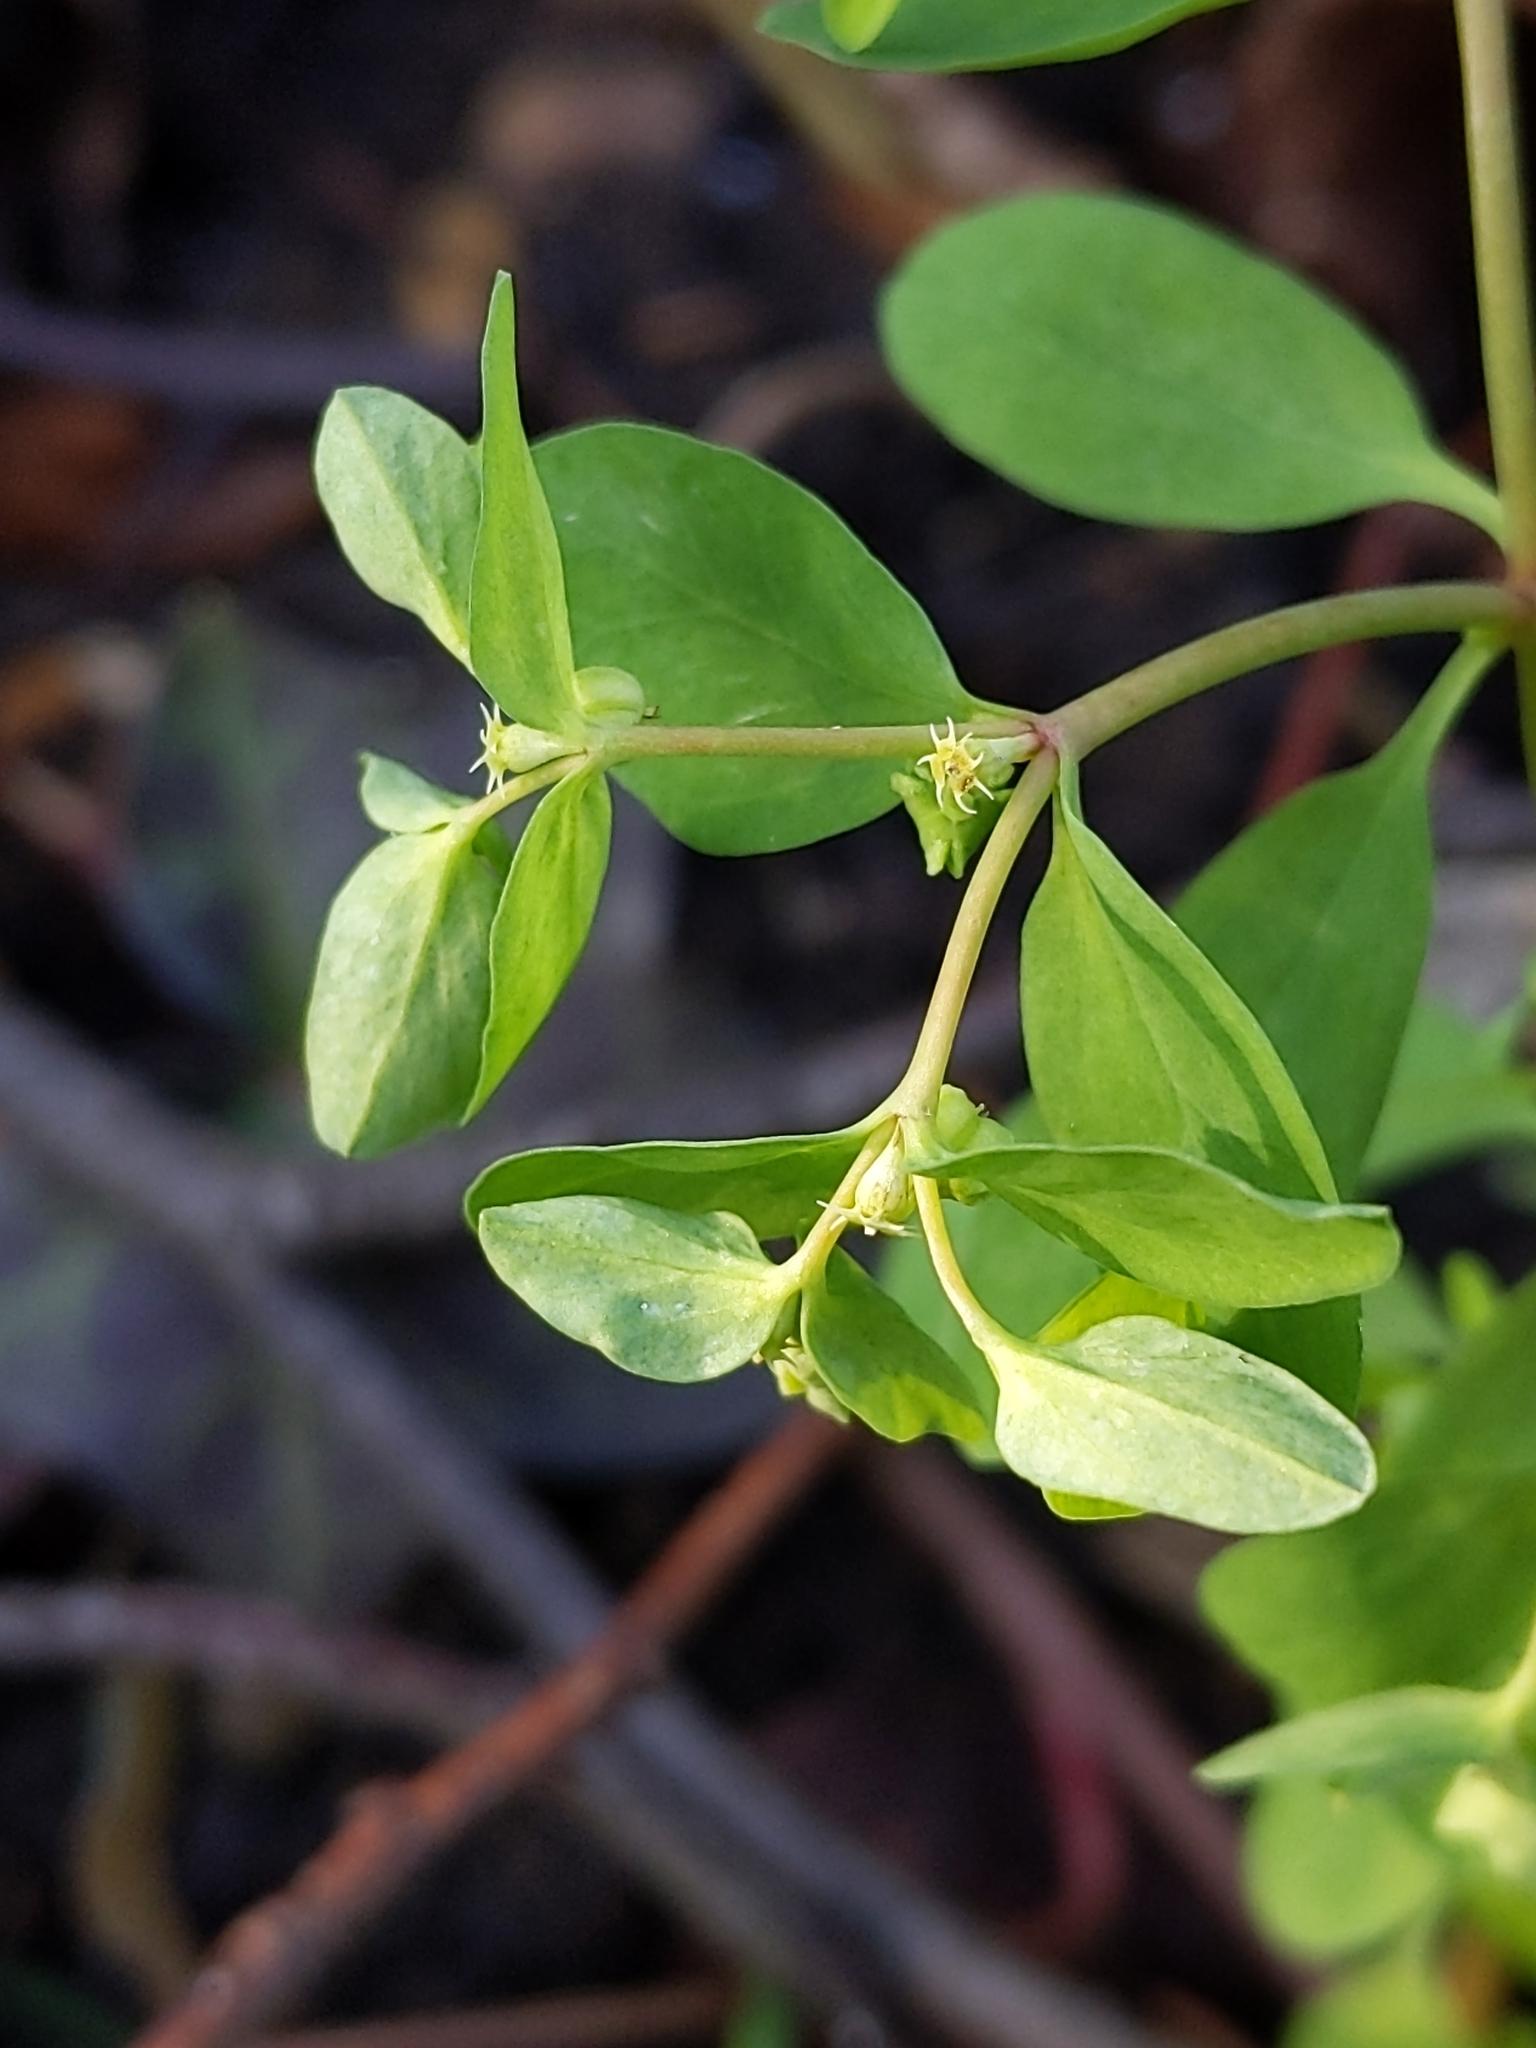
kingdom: Plantae
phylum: Tracheophyta
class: Magnoliopsida
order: Malpighiales
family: Euphorbiaceae
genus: Euphorbia
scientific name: Euphorbia peplus
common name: Petty spurge
